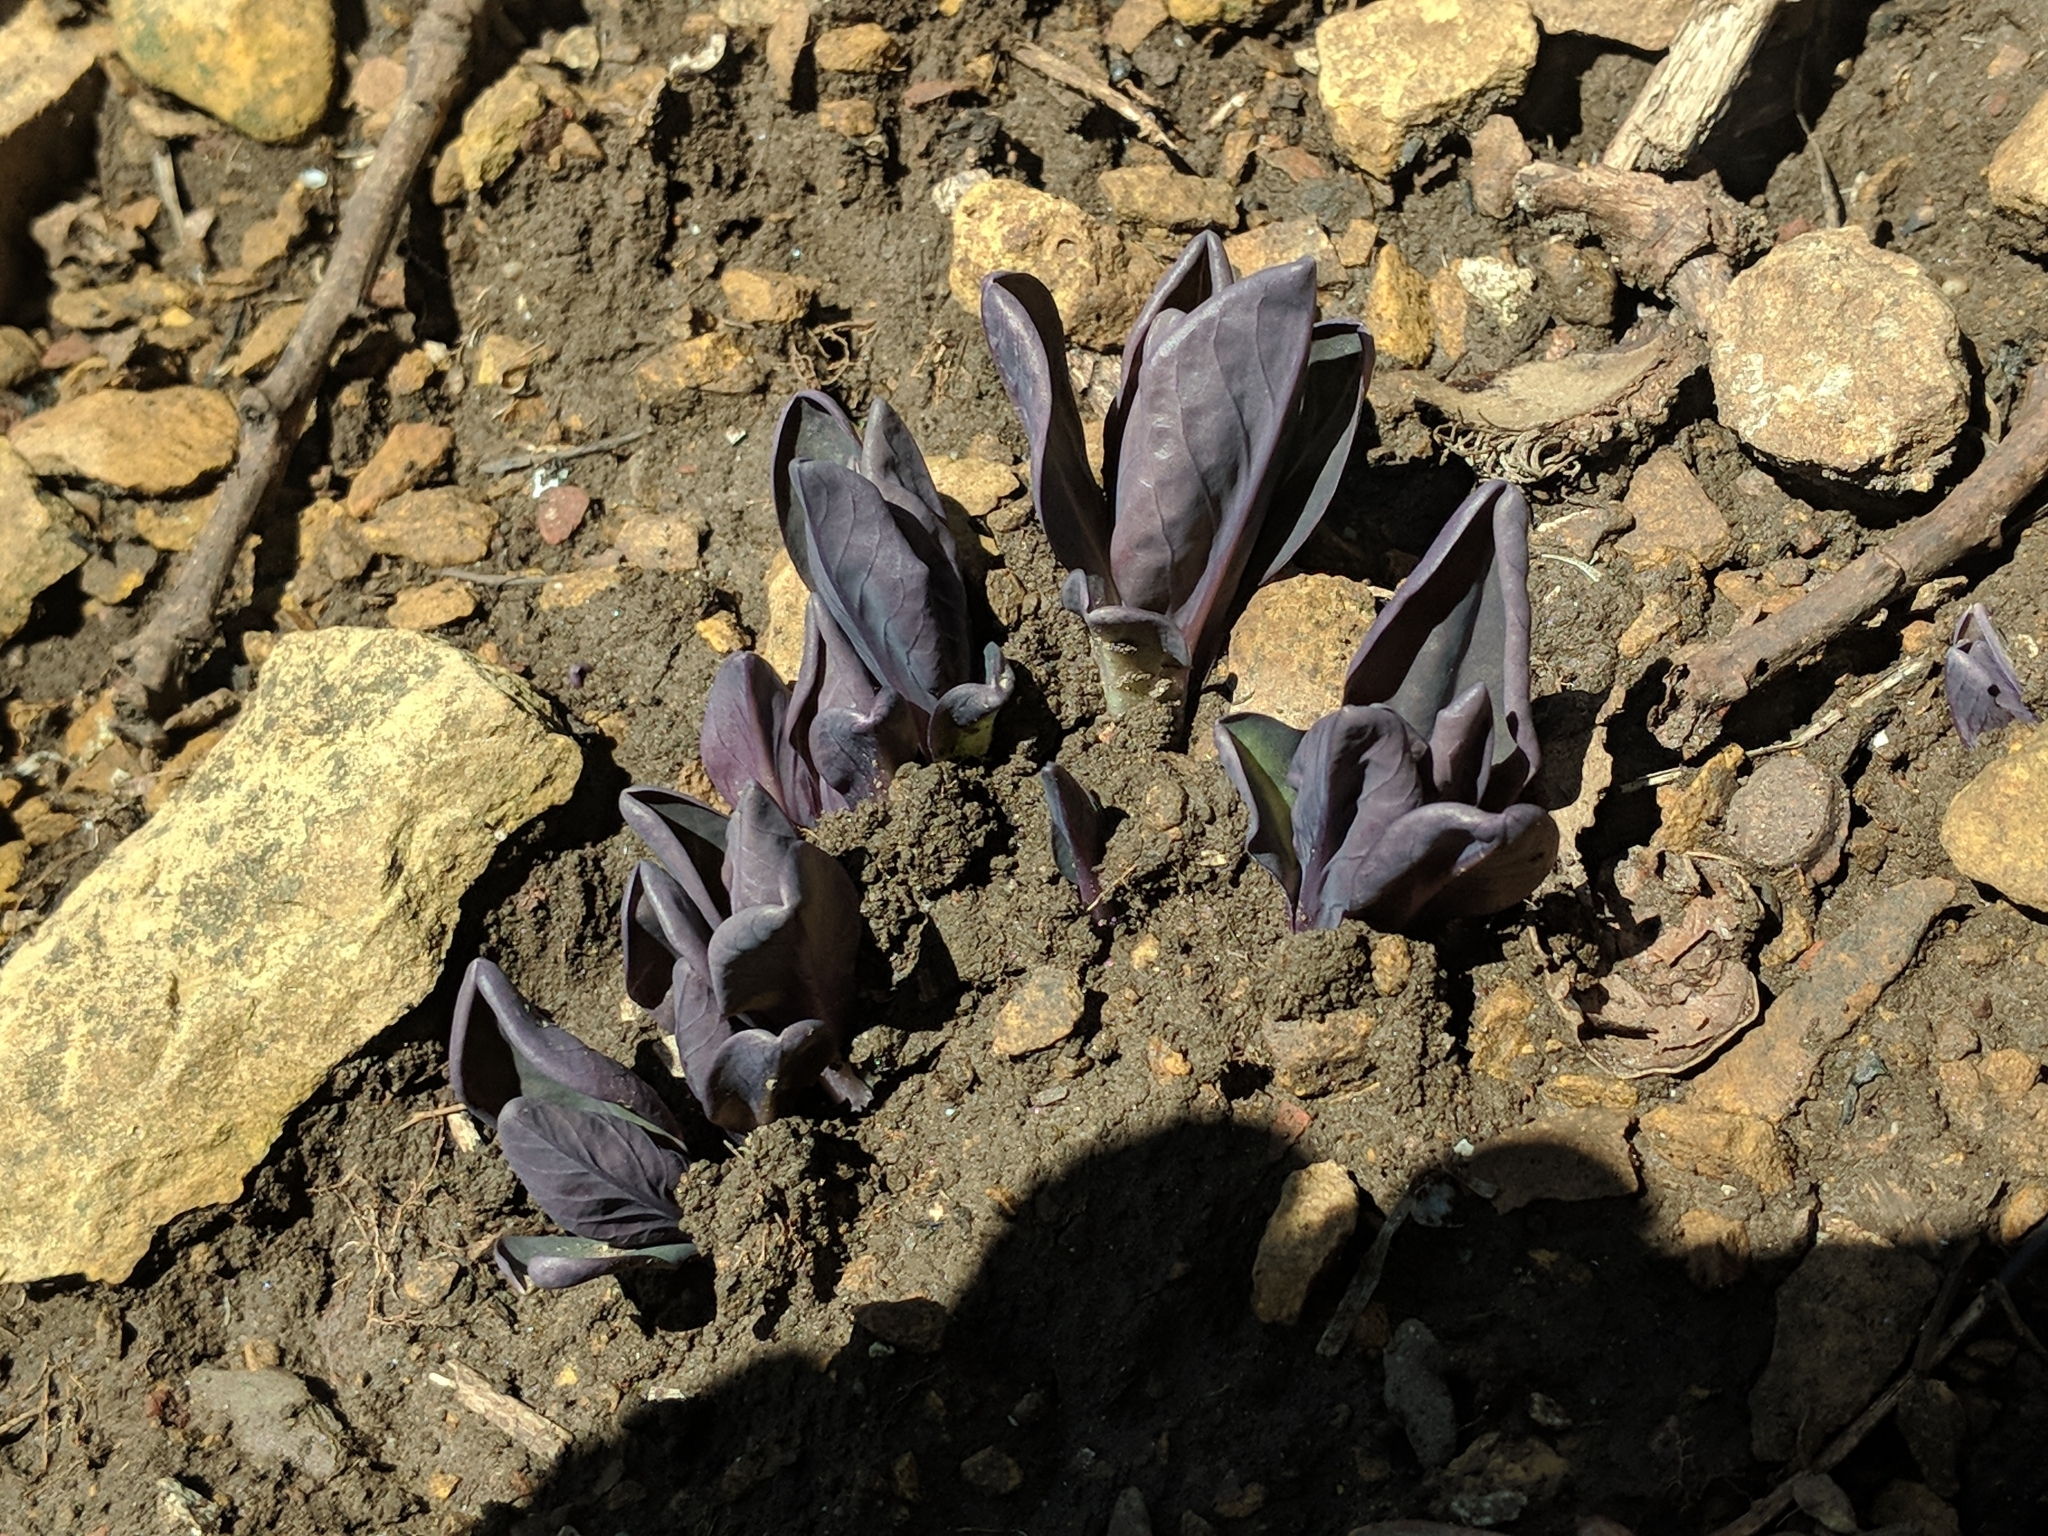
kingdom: Plantae
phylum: Tracheophyta
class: Magnoliopsida
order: Boraginales
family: Boraginaceae
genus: Mertensia
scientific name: Mertensia virginica
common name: Virginia bluebells
